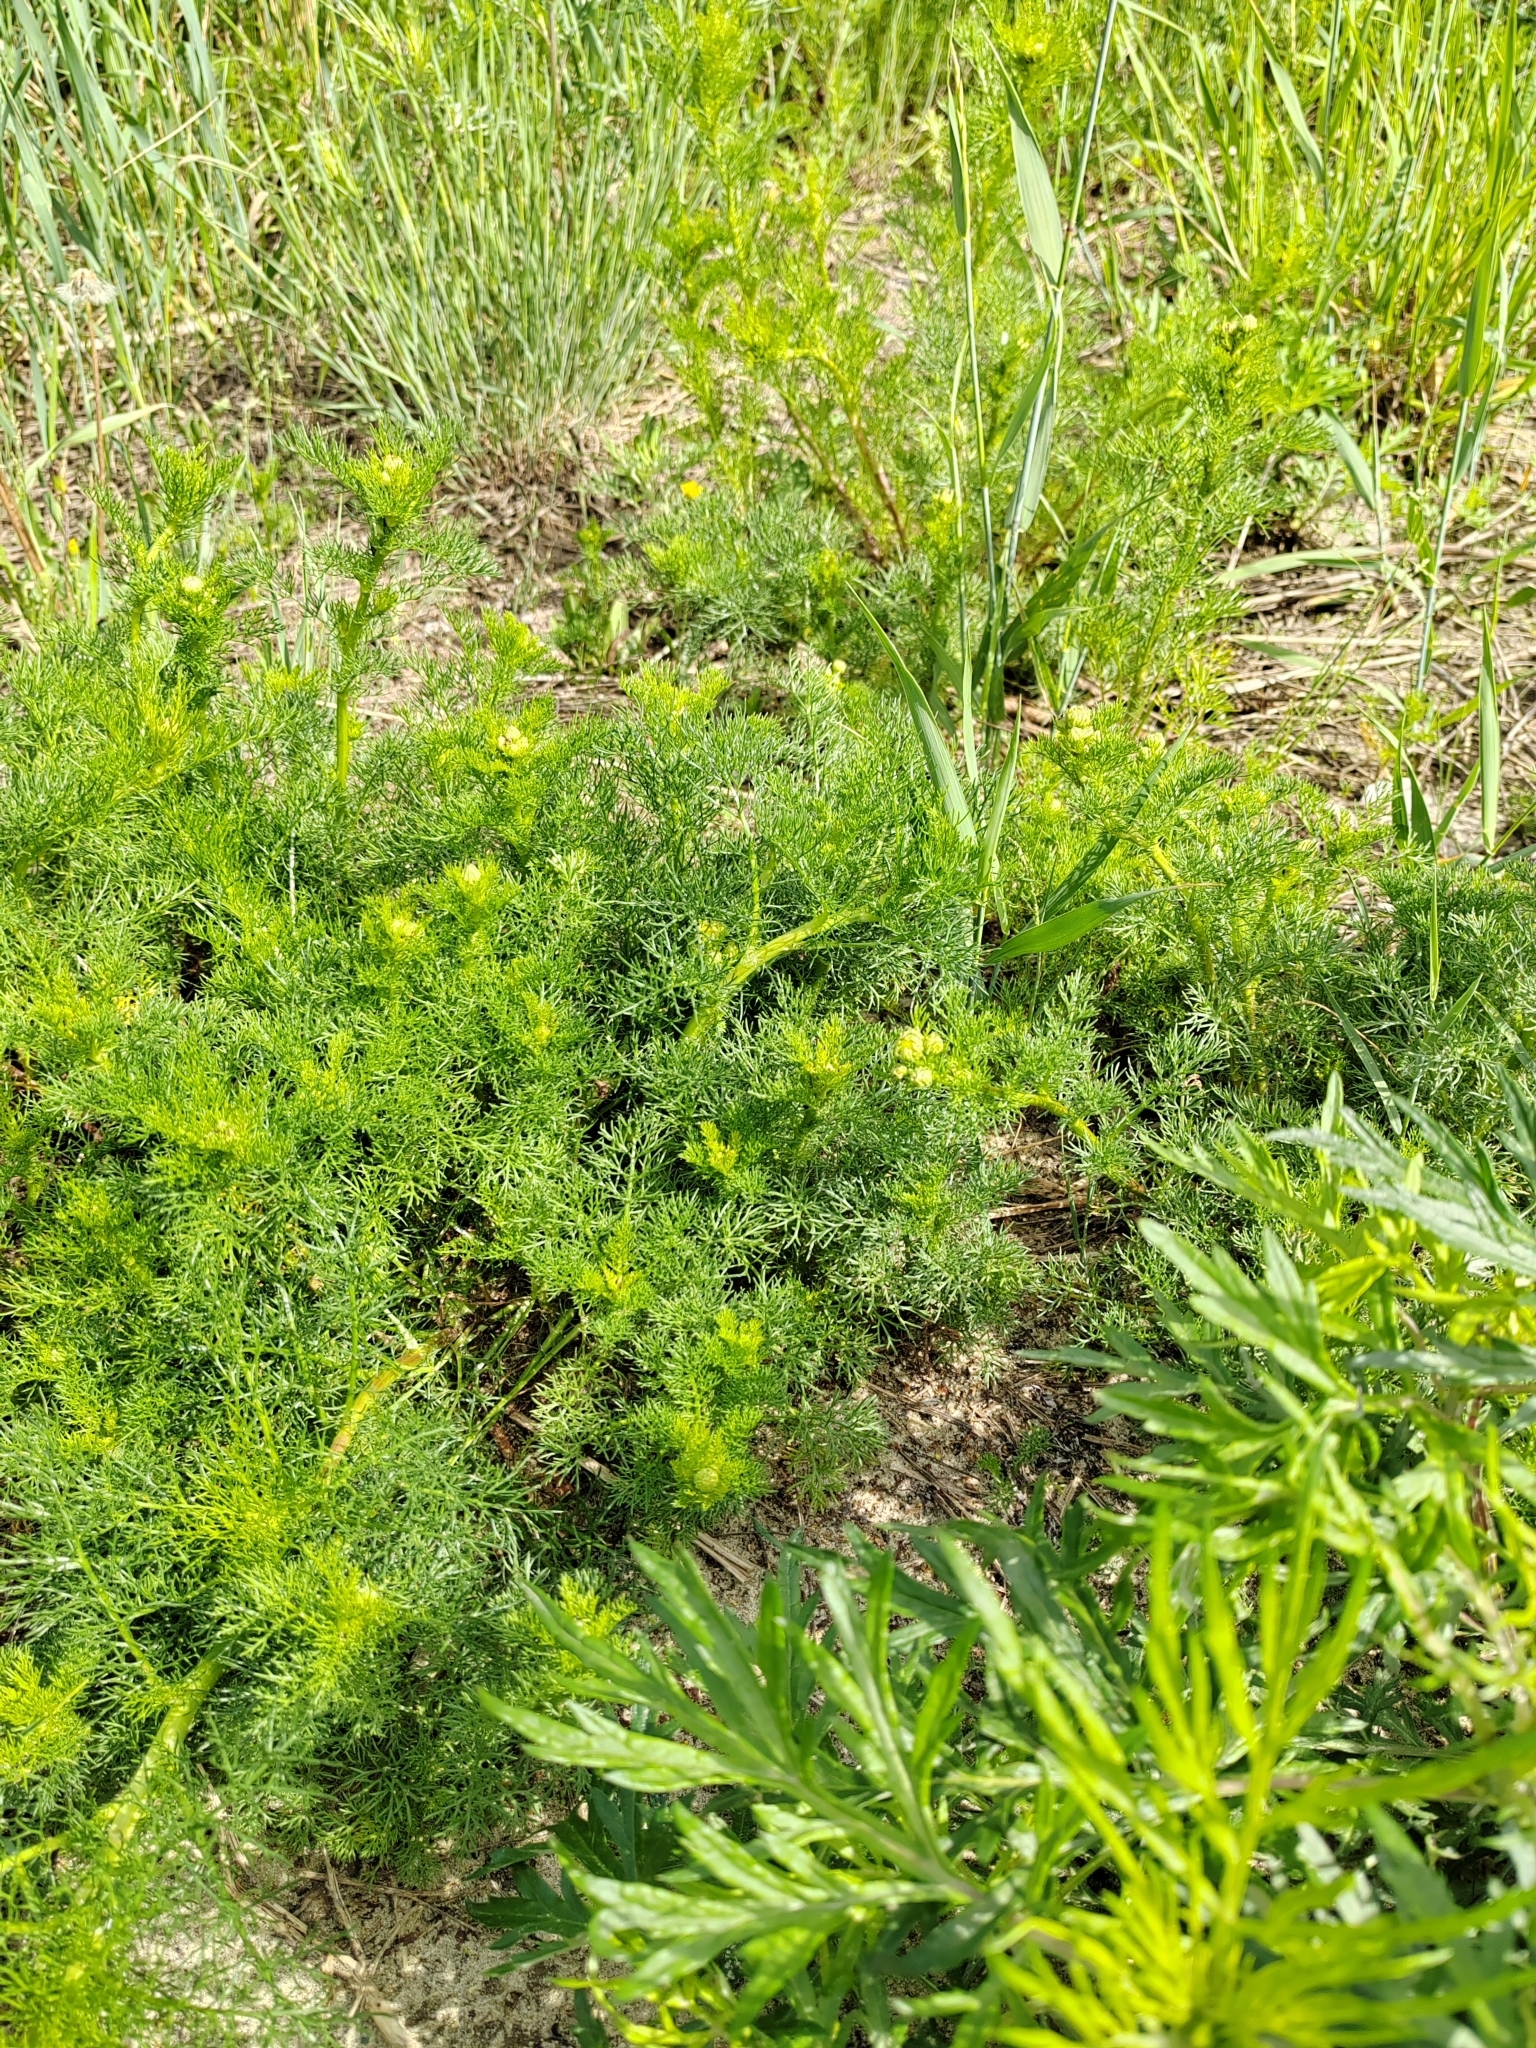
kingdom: Plantae
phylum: Tracheophyta
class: Magnoliopsida
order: Asterales
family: Asteraceae
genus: Tripleurospermum
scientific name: Tripleurospermum inodorum
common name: Scentless mayweed
